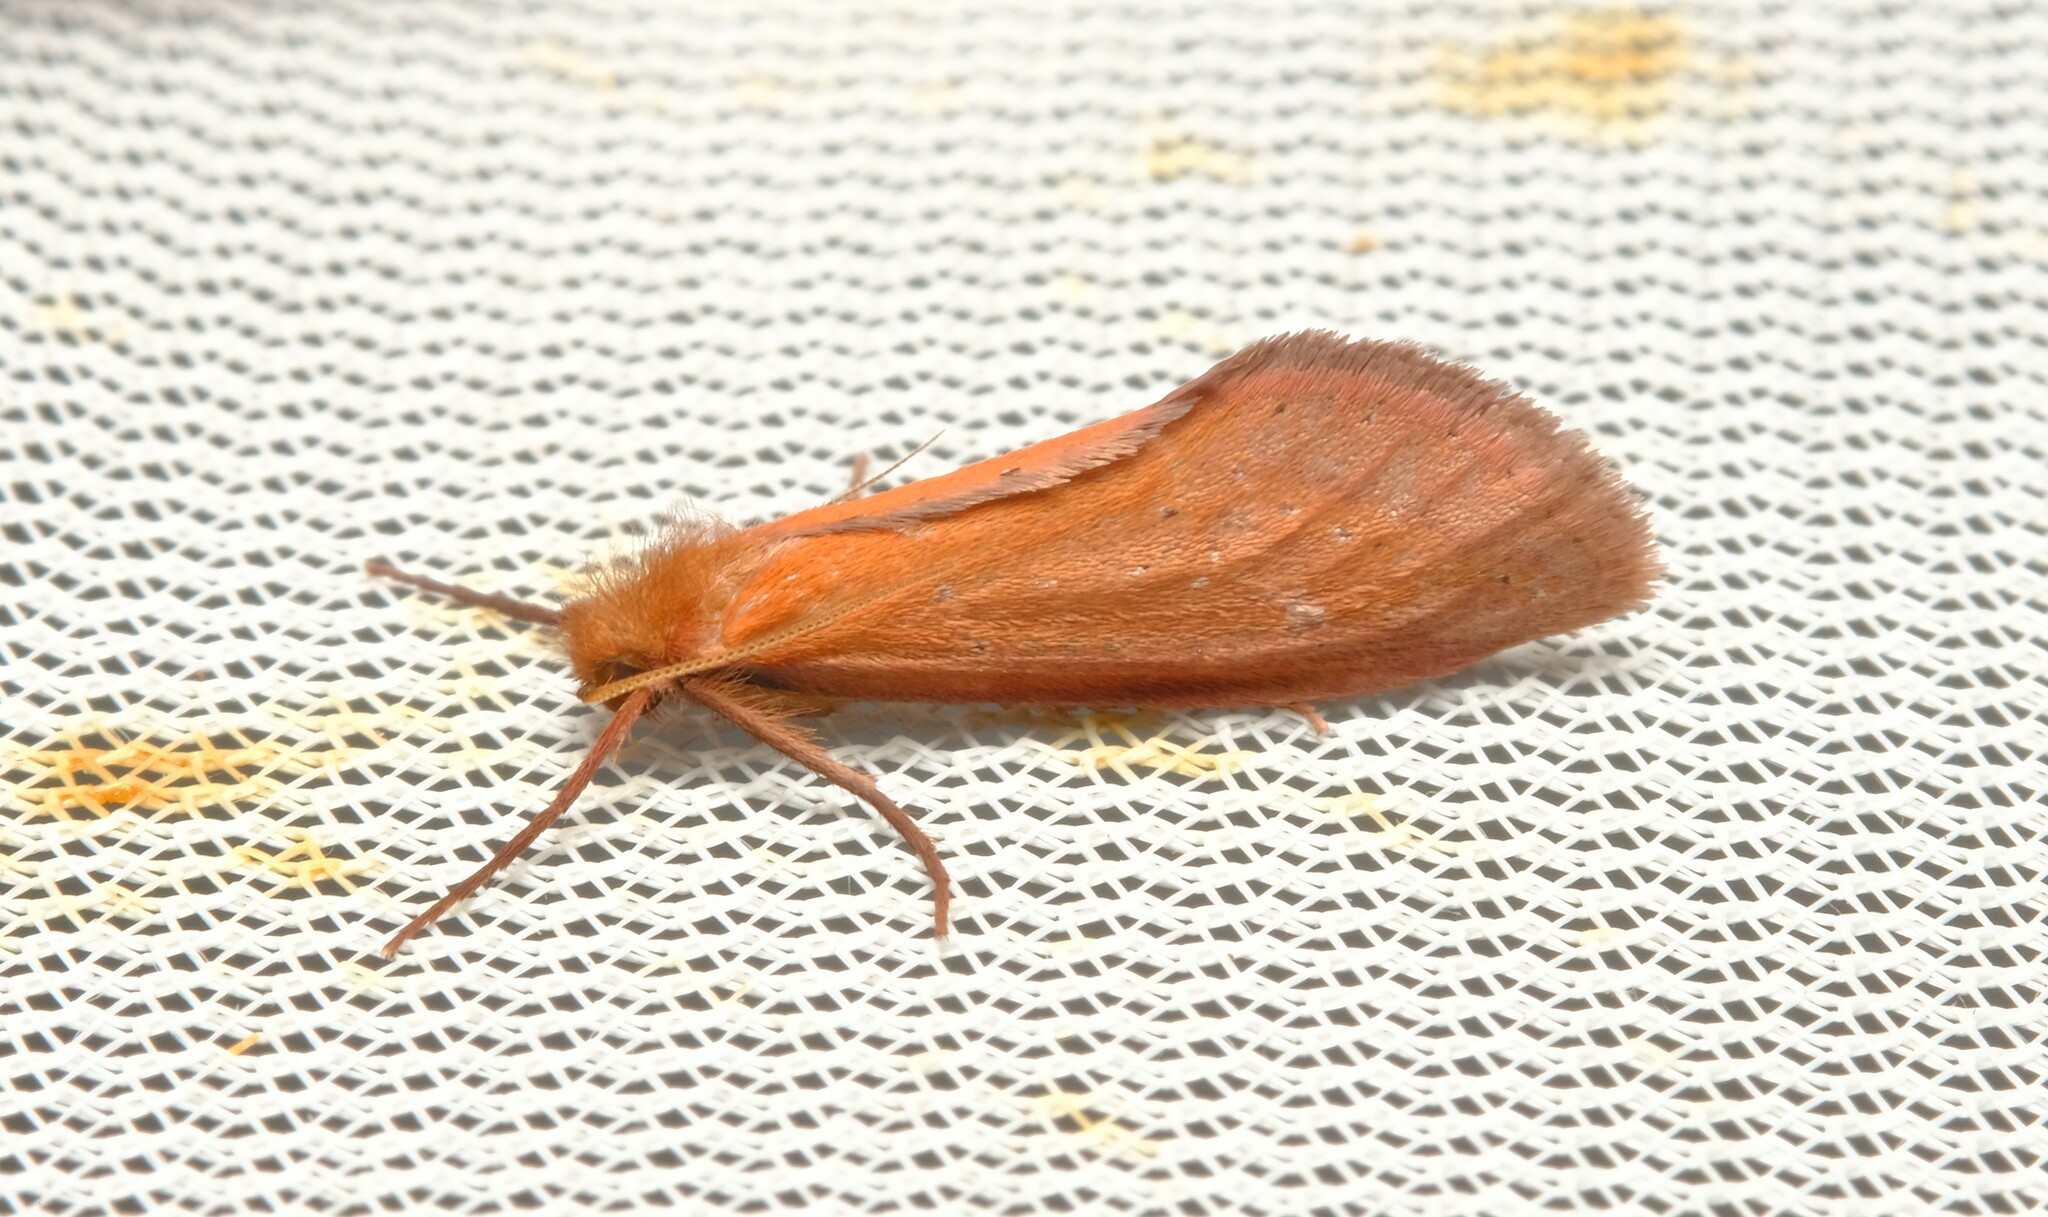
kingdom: Animalia
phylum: Arthropoda
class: Insecta
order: Lepidoptera
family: Hepialidae
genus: Fraus
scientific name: Fraus nanus
